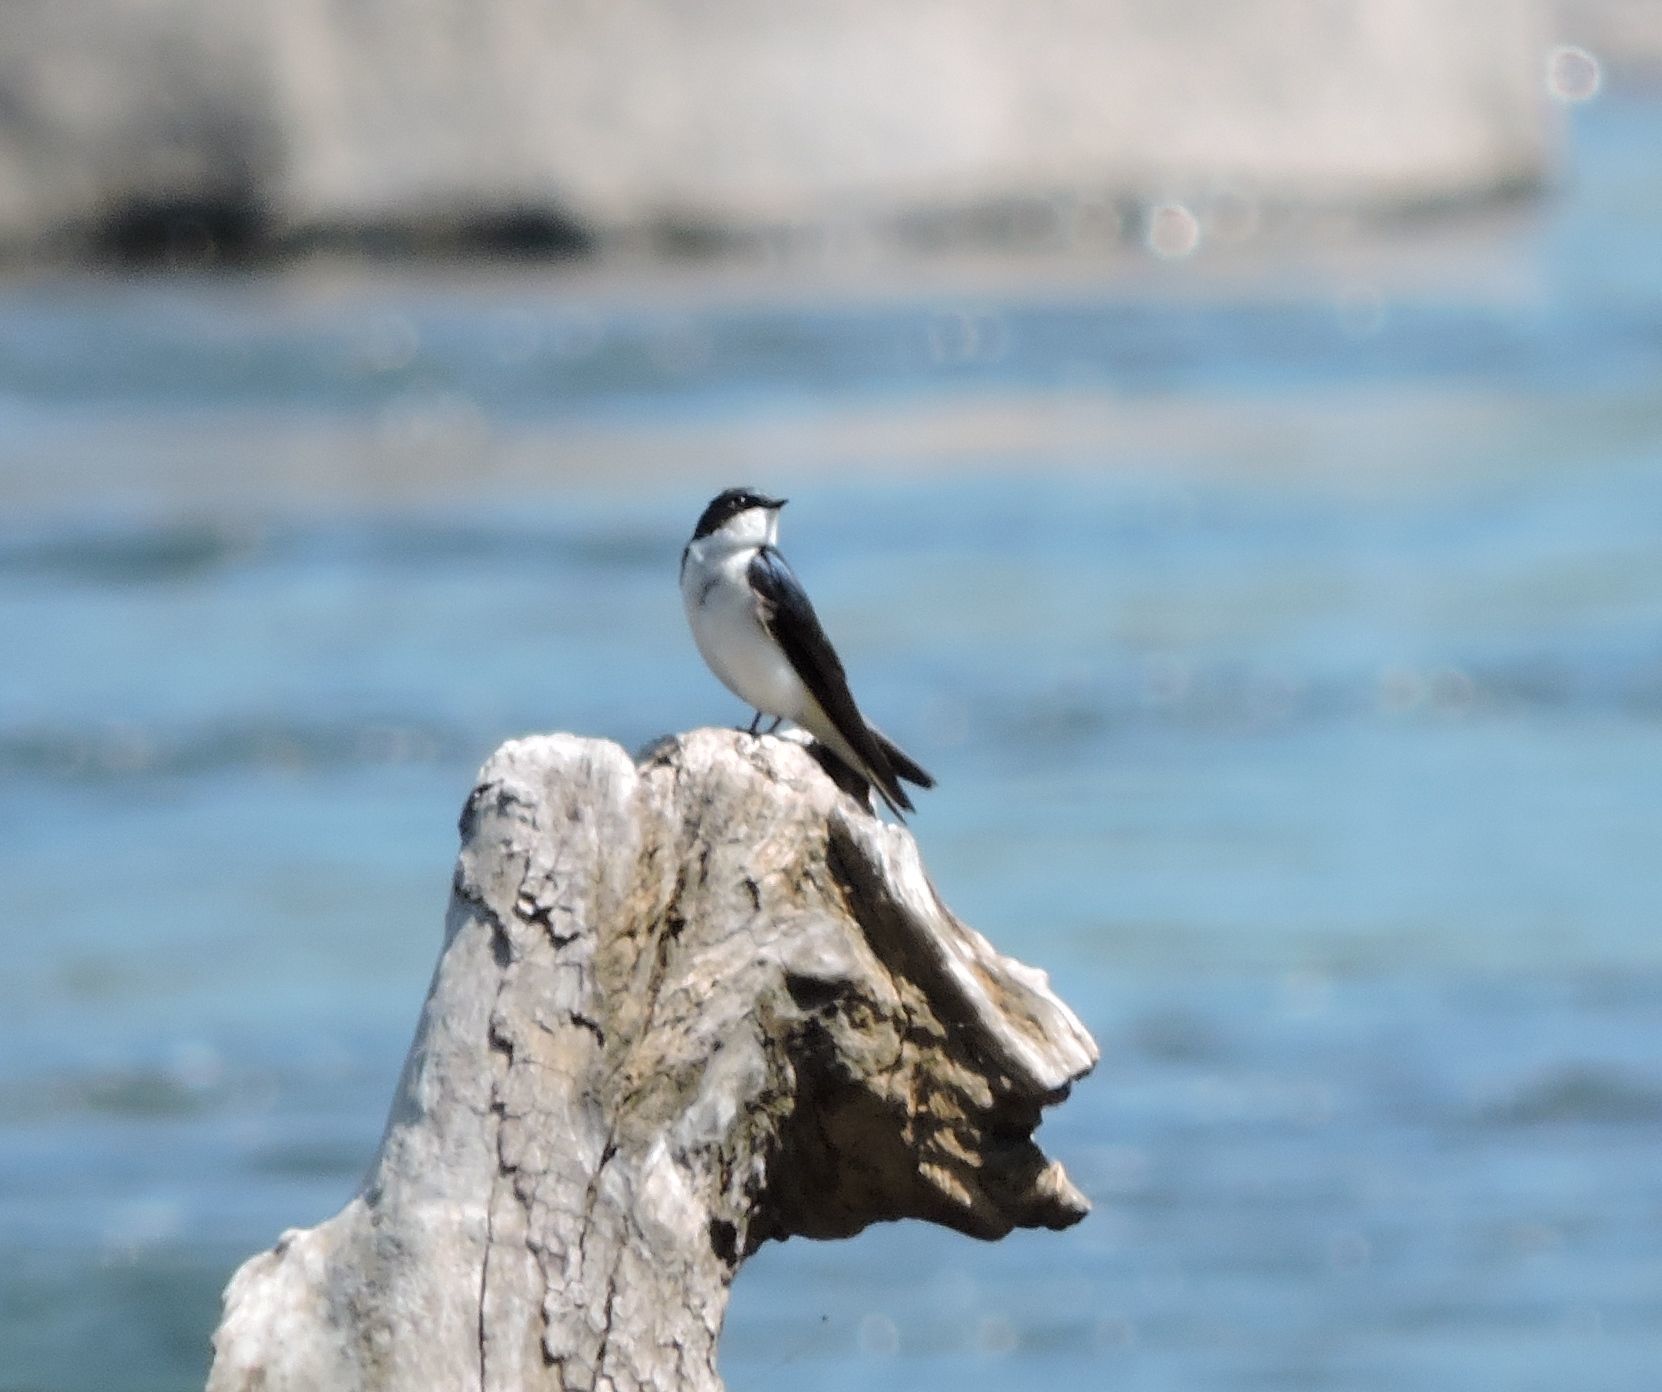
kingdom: Animalia
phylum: Chordata
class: Aves
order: Passeriformes
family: Hirundinidae
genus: Tachycineta
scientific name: Tachycineta bicolor
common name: Tree swallow
